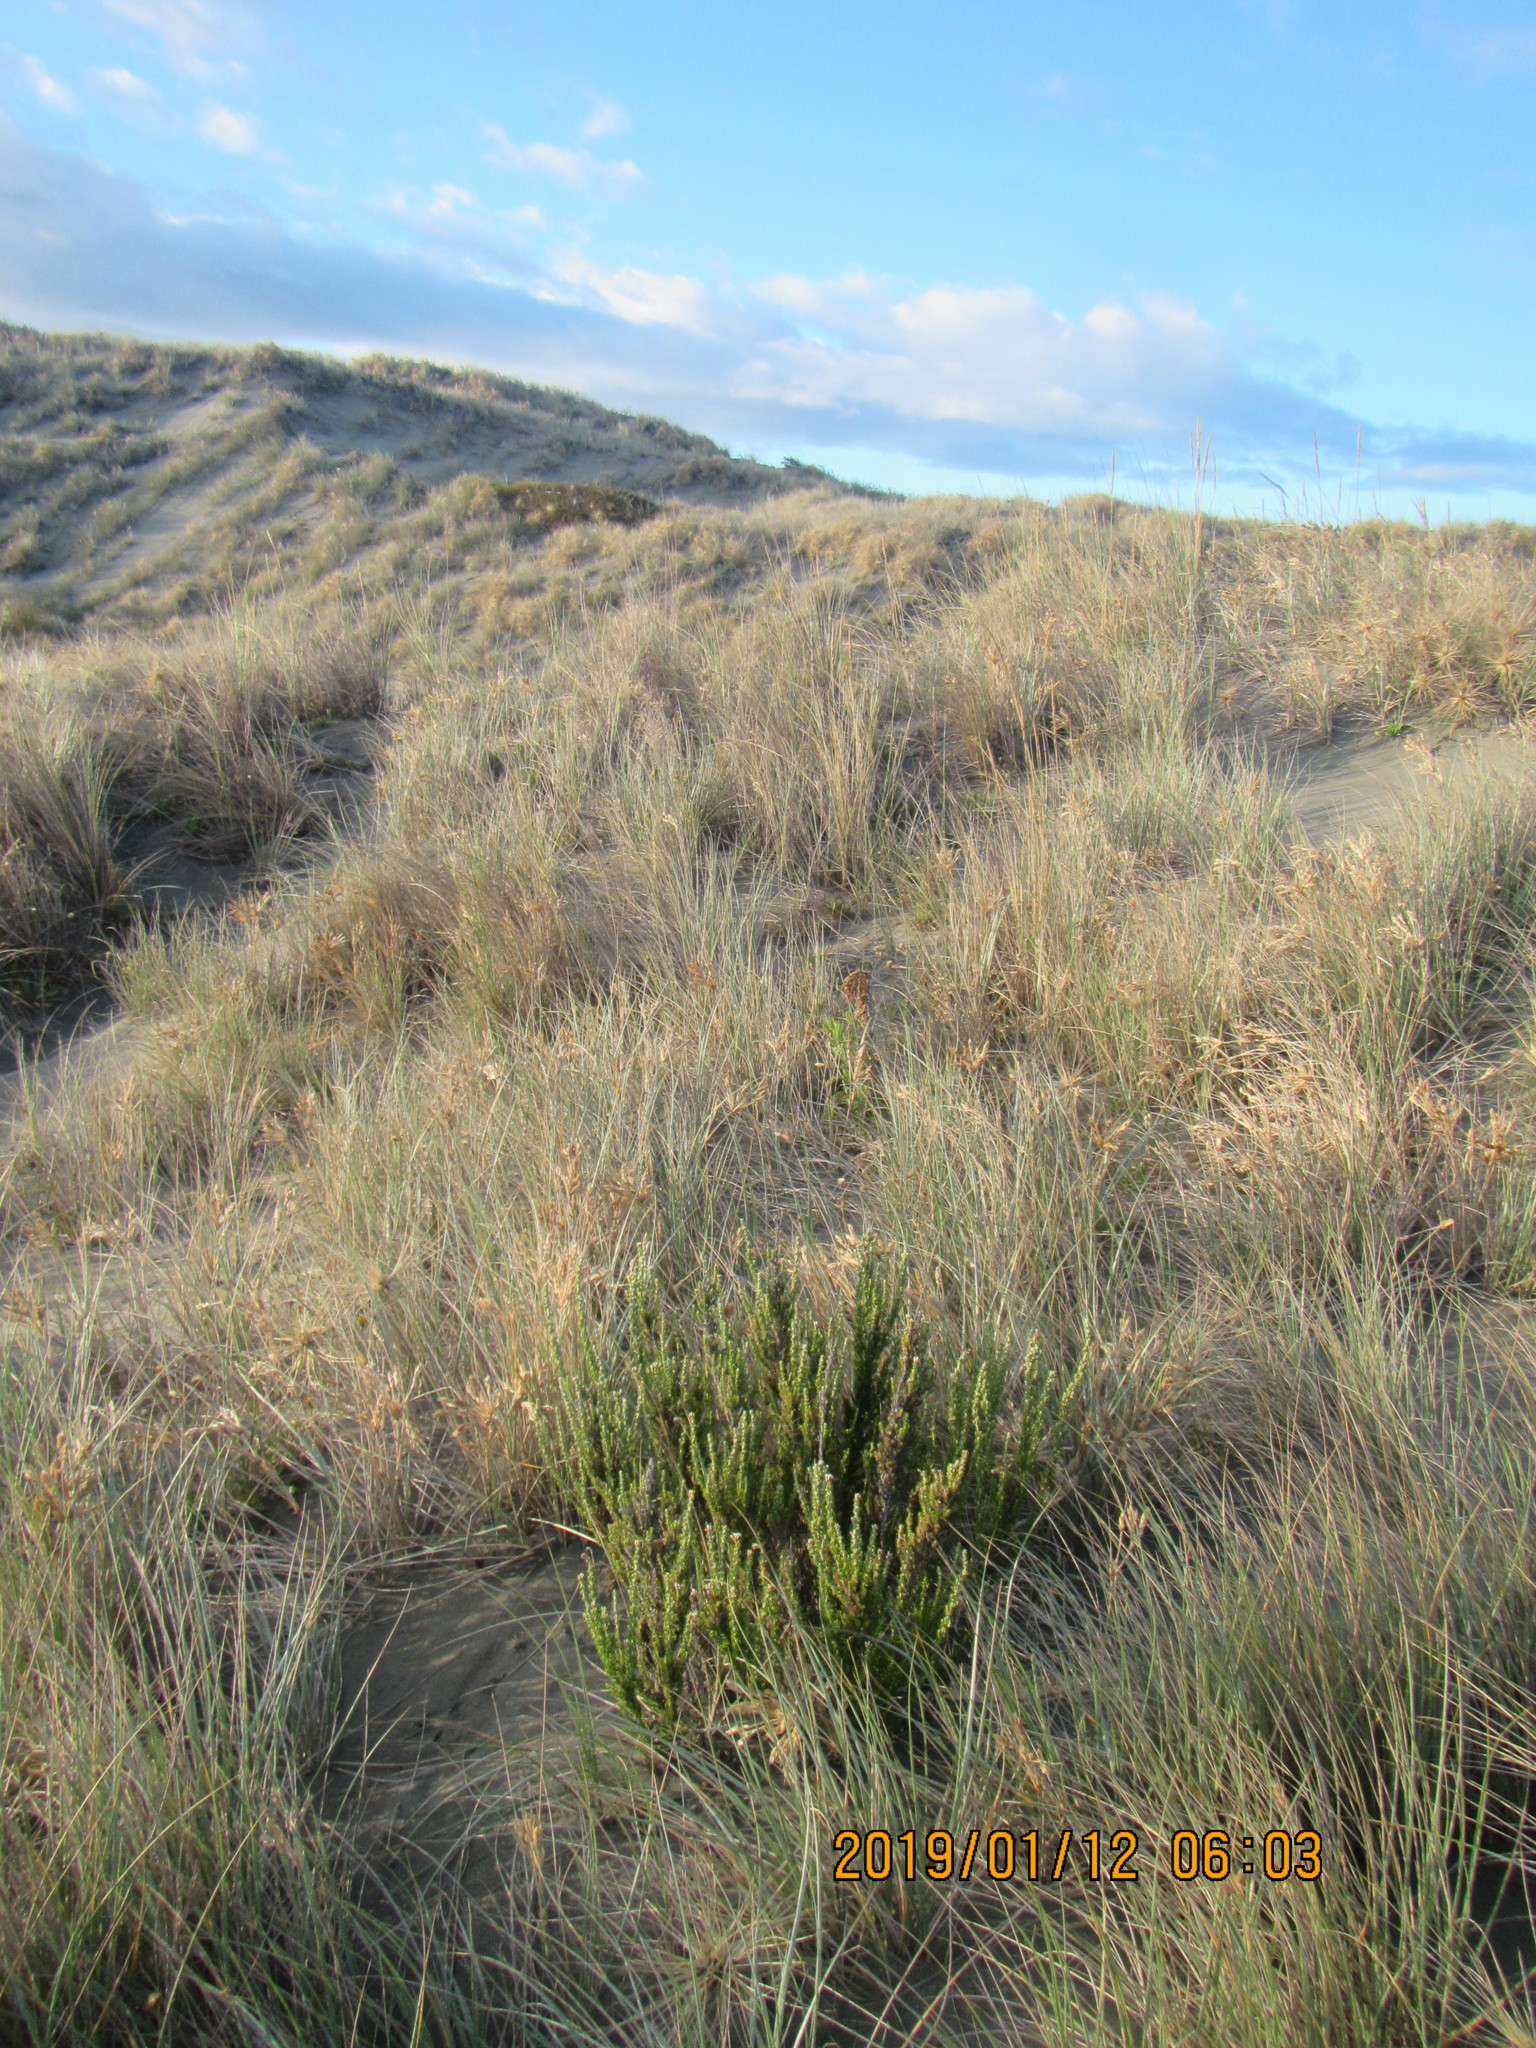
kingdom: Plantae
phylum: Tracheophyta
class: Magnoliopsida
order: Asterales
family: Asteraceae
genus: Ozothamnus
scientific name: Ozothamnus leptophyllus
